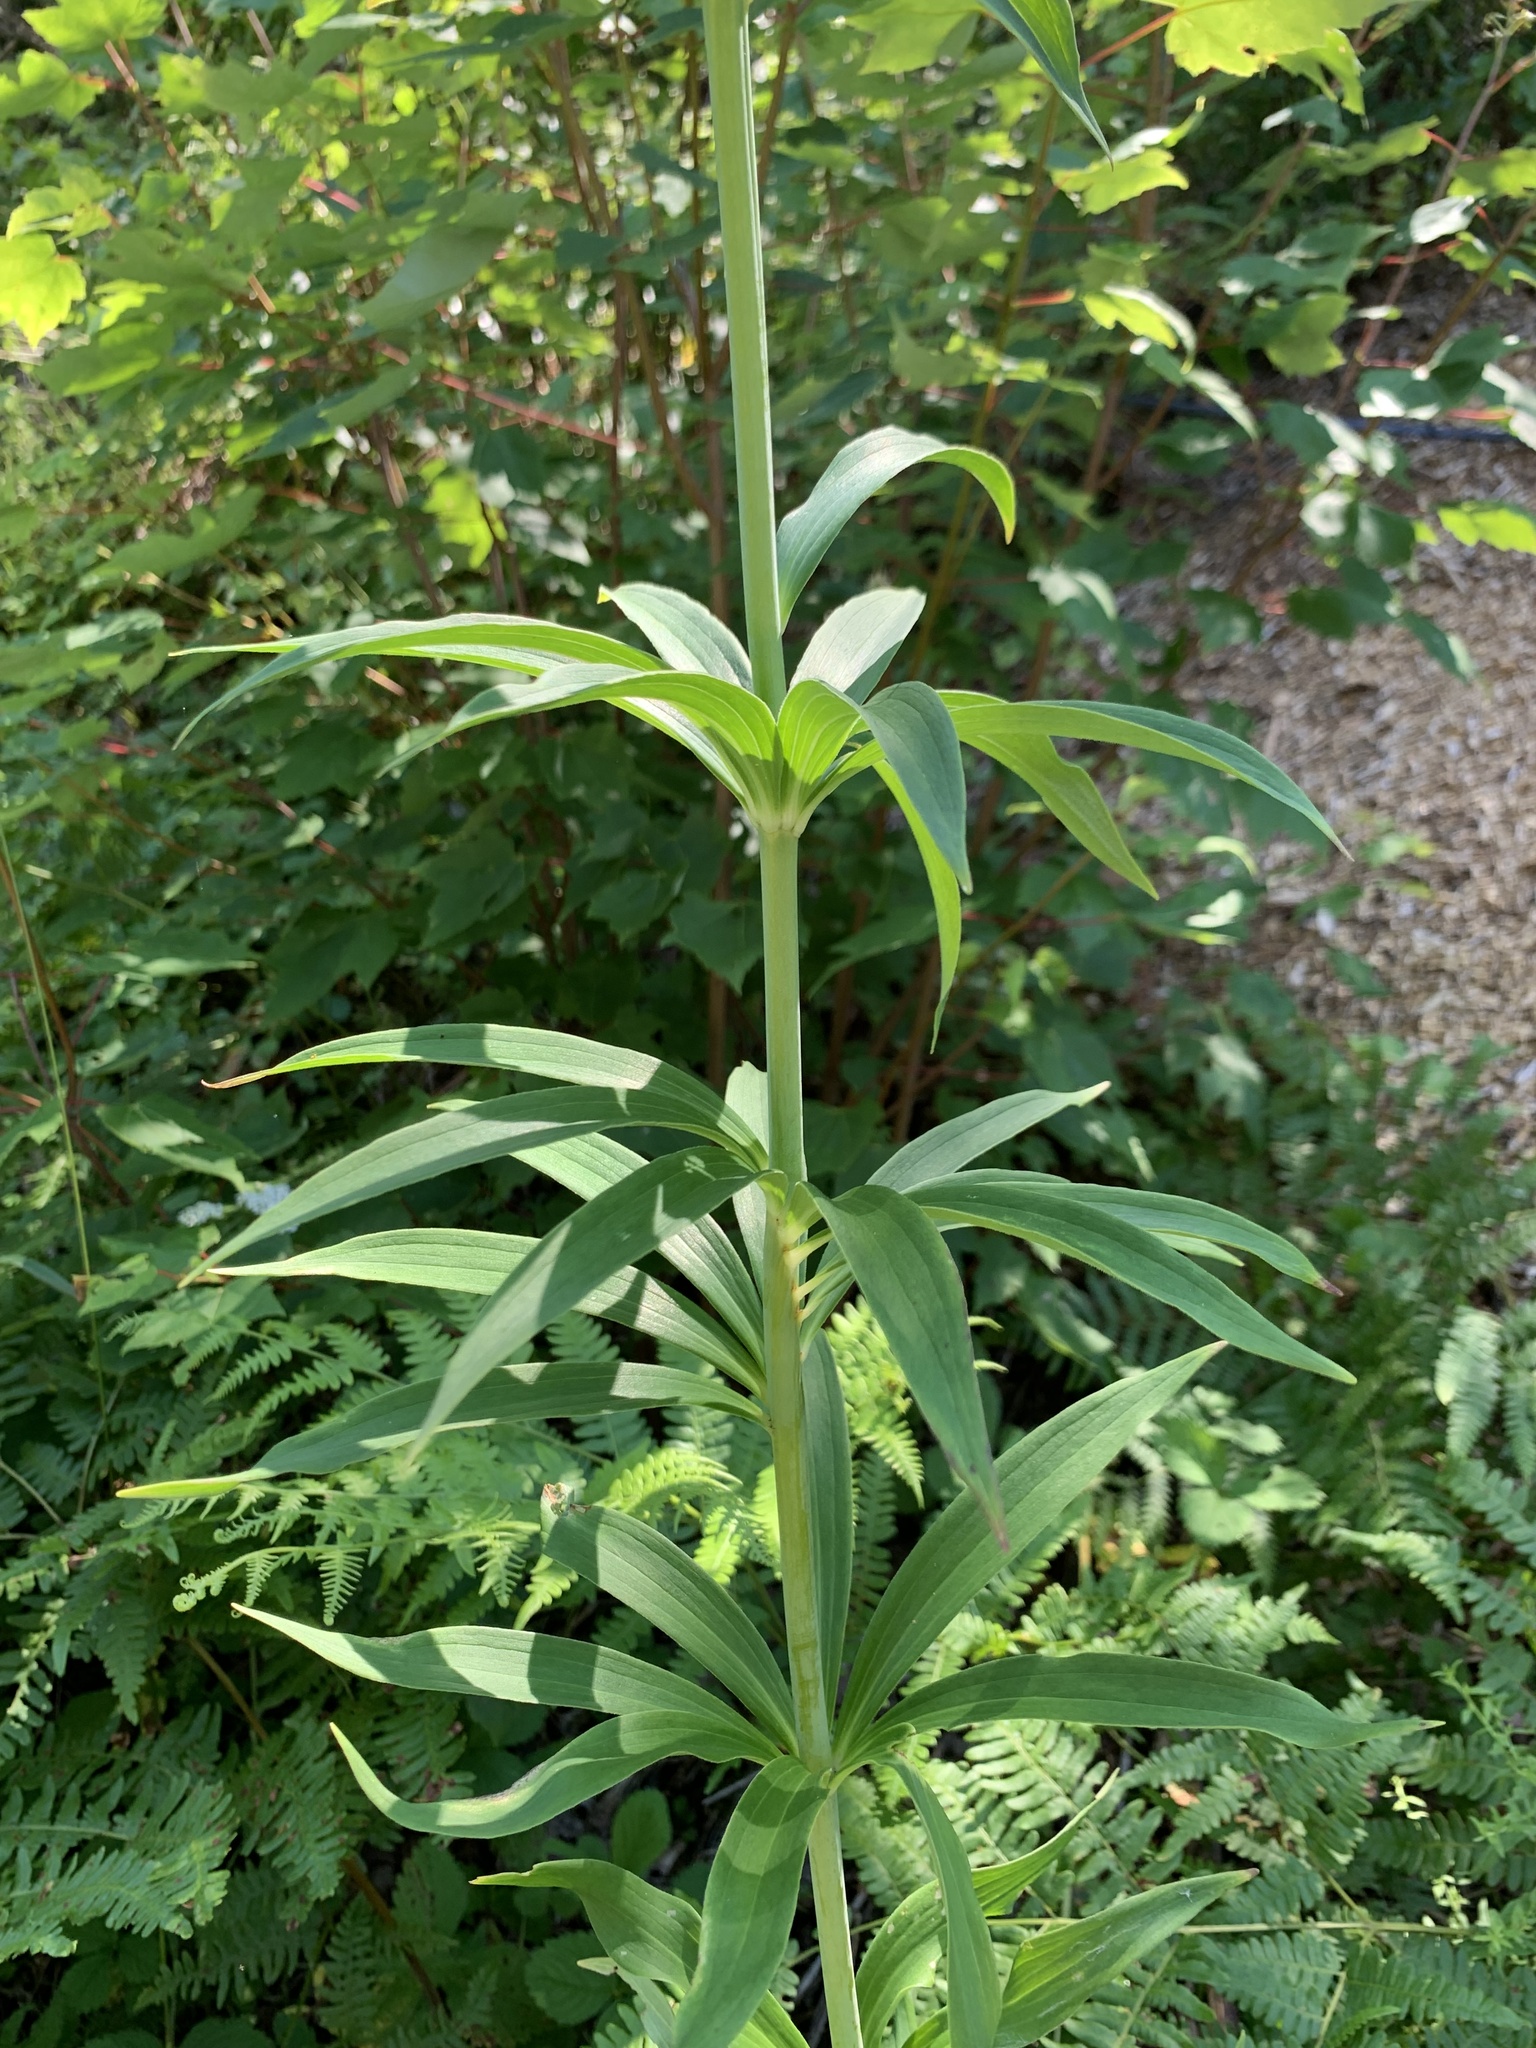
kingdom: Plantae
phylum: Tracheophyta
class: Liliopsida
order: Liliales
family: Liliaceae
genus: Lilium
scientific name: Lilium canadense
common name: Canada lily
